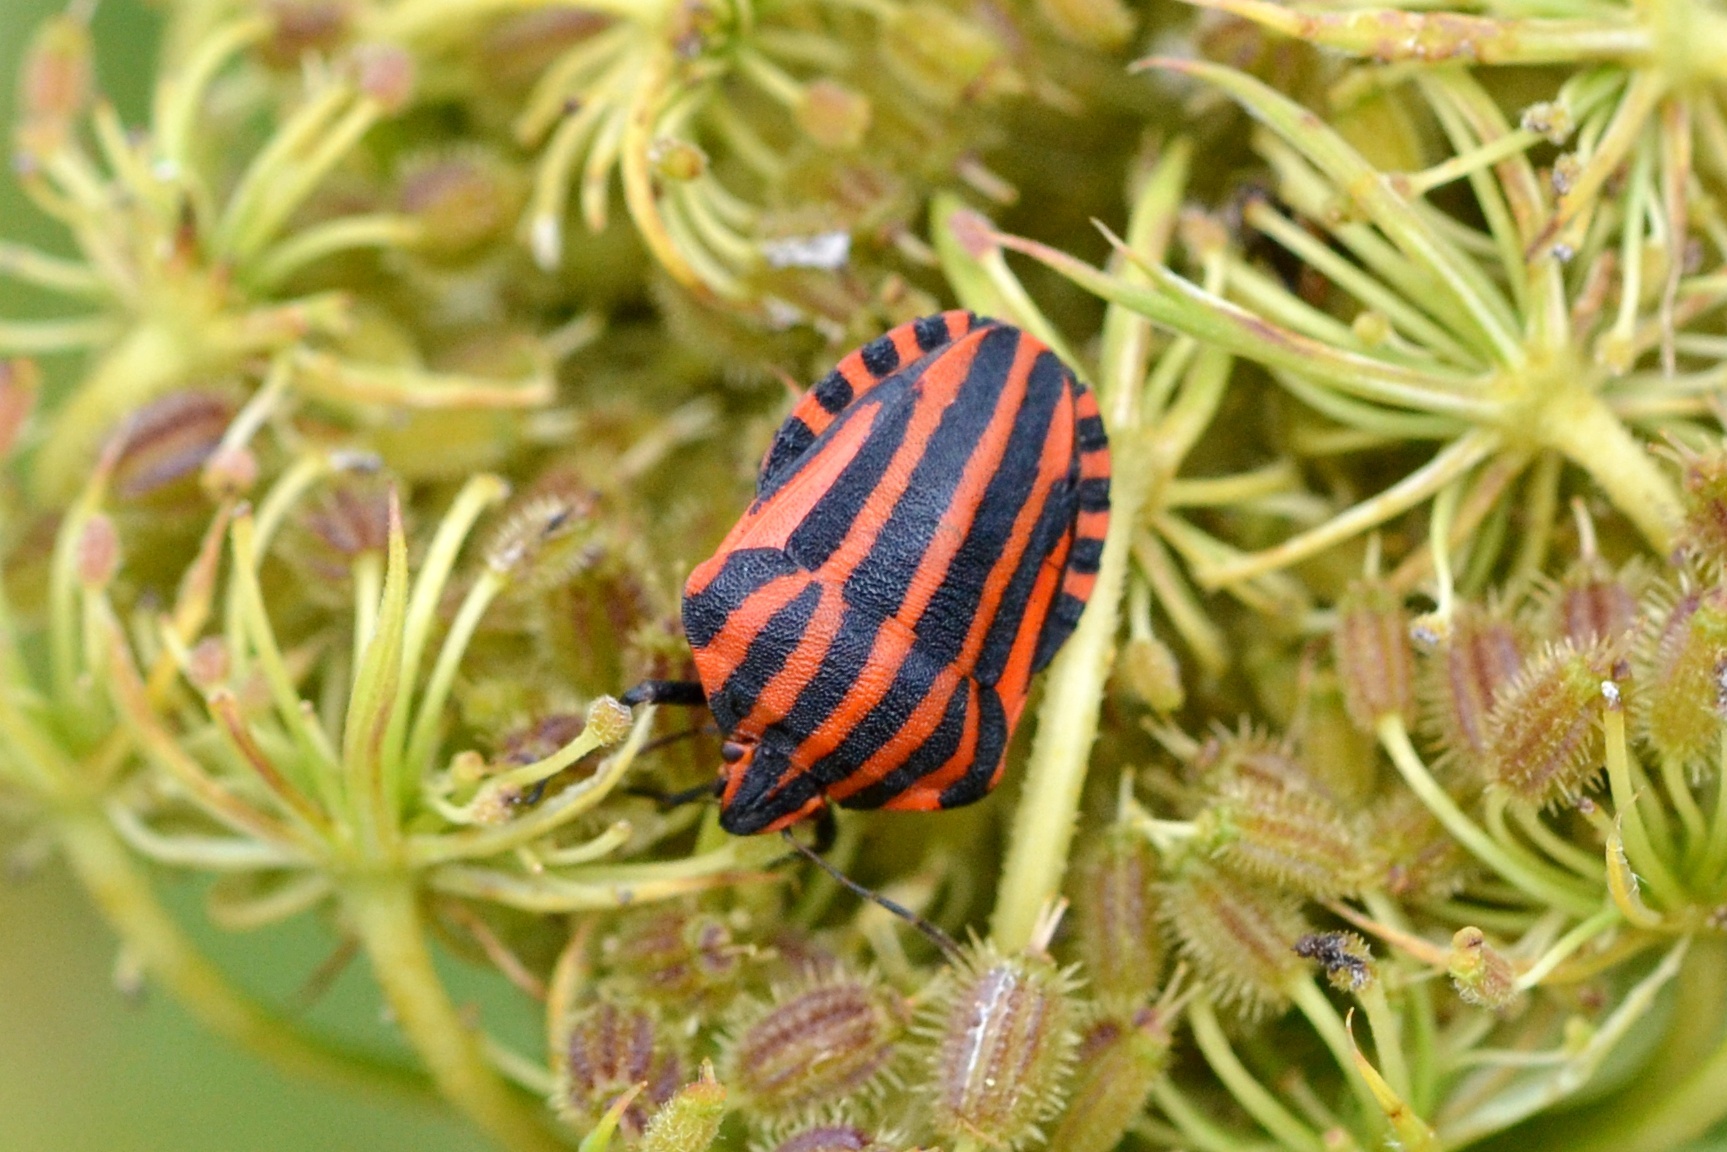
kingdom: Animalia
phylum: Arthropoda
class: Insecta
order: Hemiptera
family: Pentatomidae
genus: Graphosoma
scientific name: Graphosoma italicum
